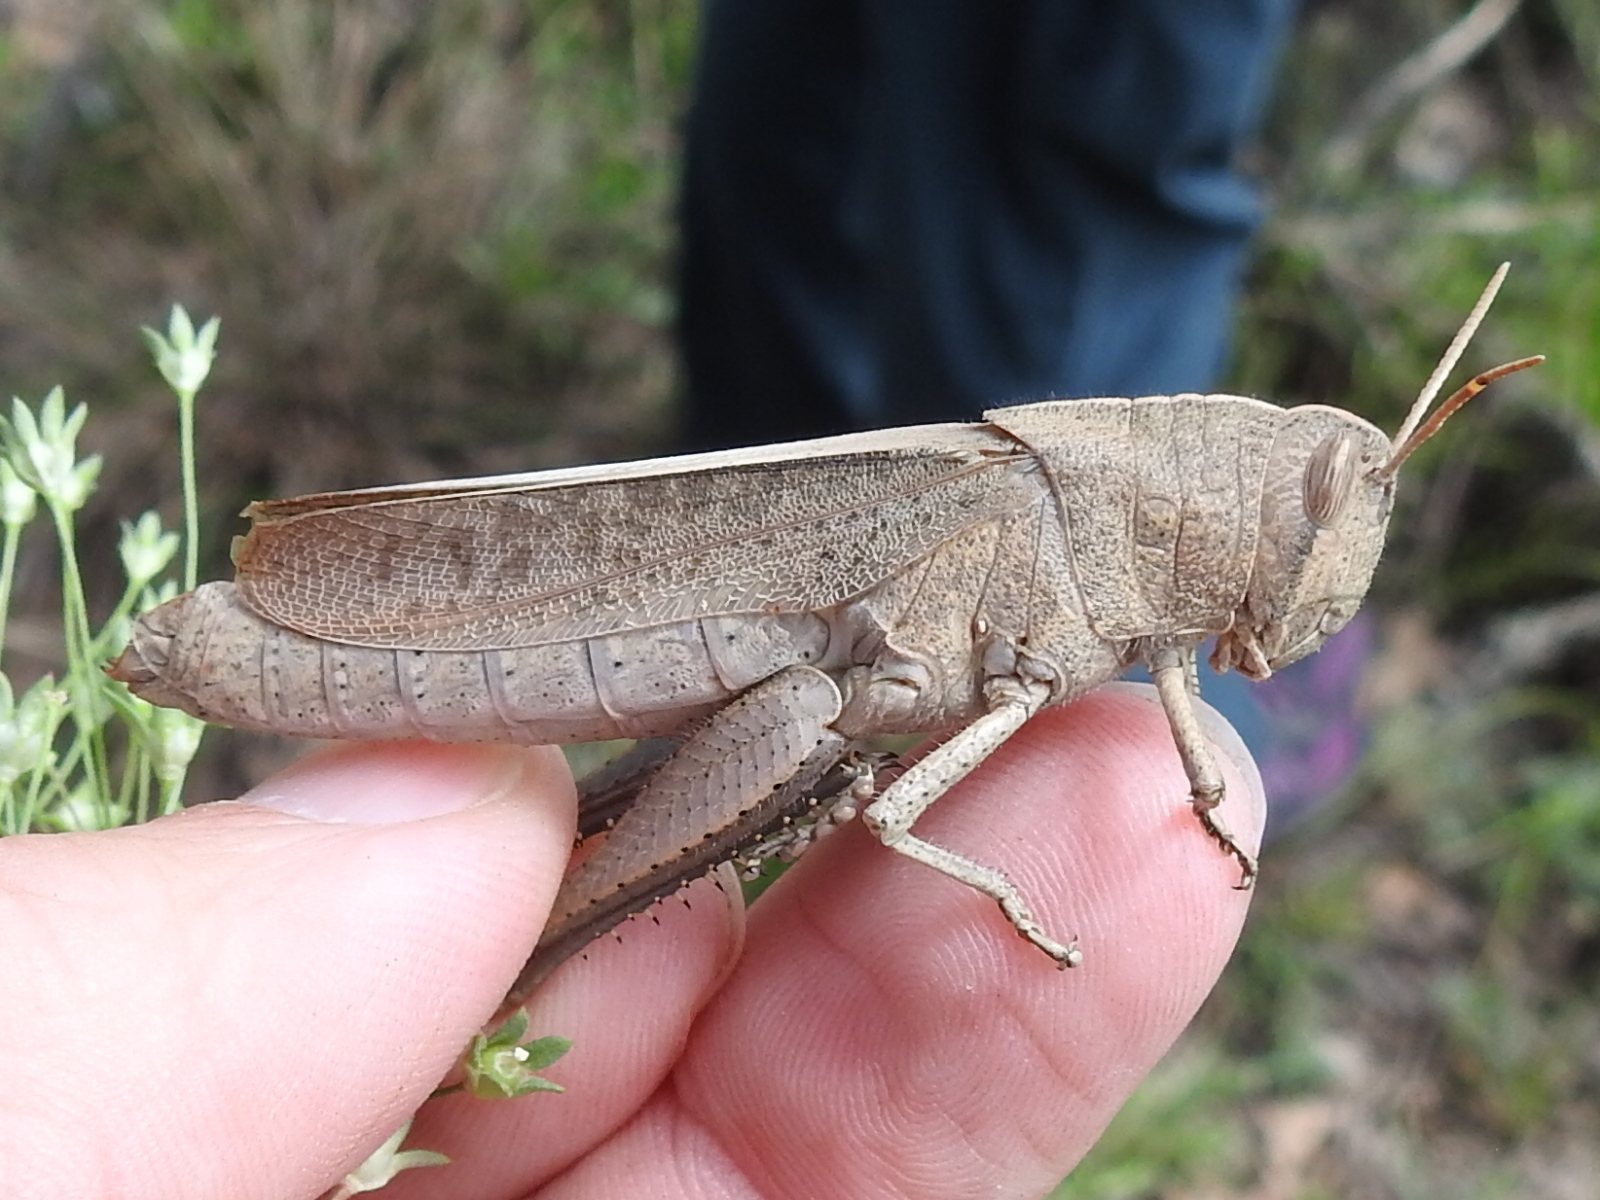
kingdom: Animalia
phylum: Arthropoda
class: Insecta
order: Orthoptera
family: Acrididae
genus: Schistocerca
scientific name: Schistocerca damnifica
